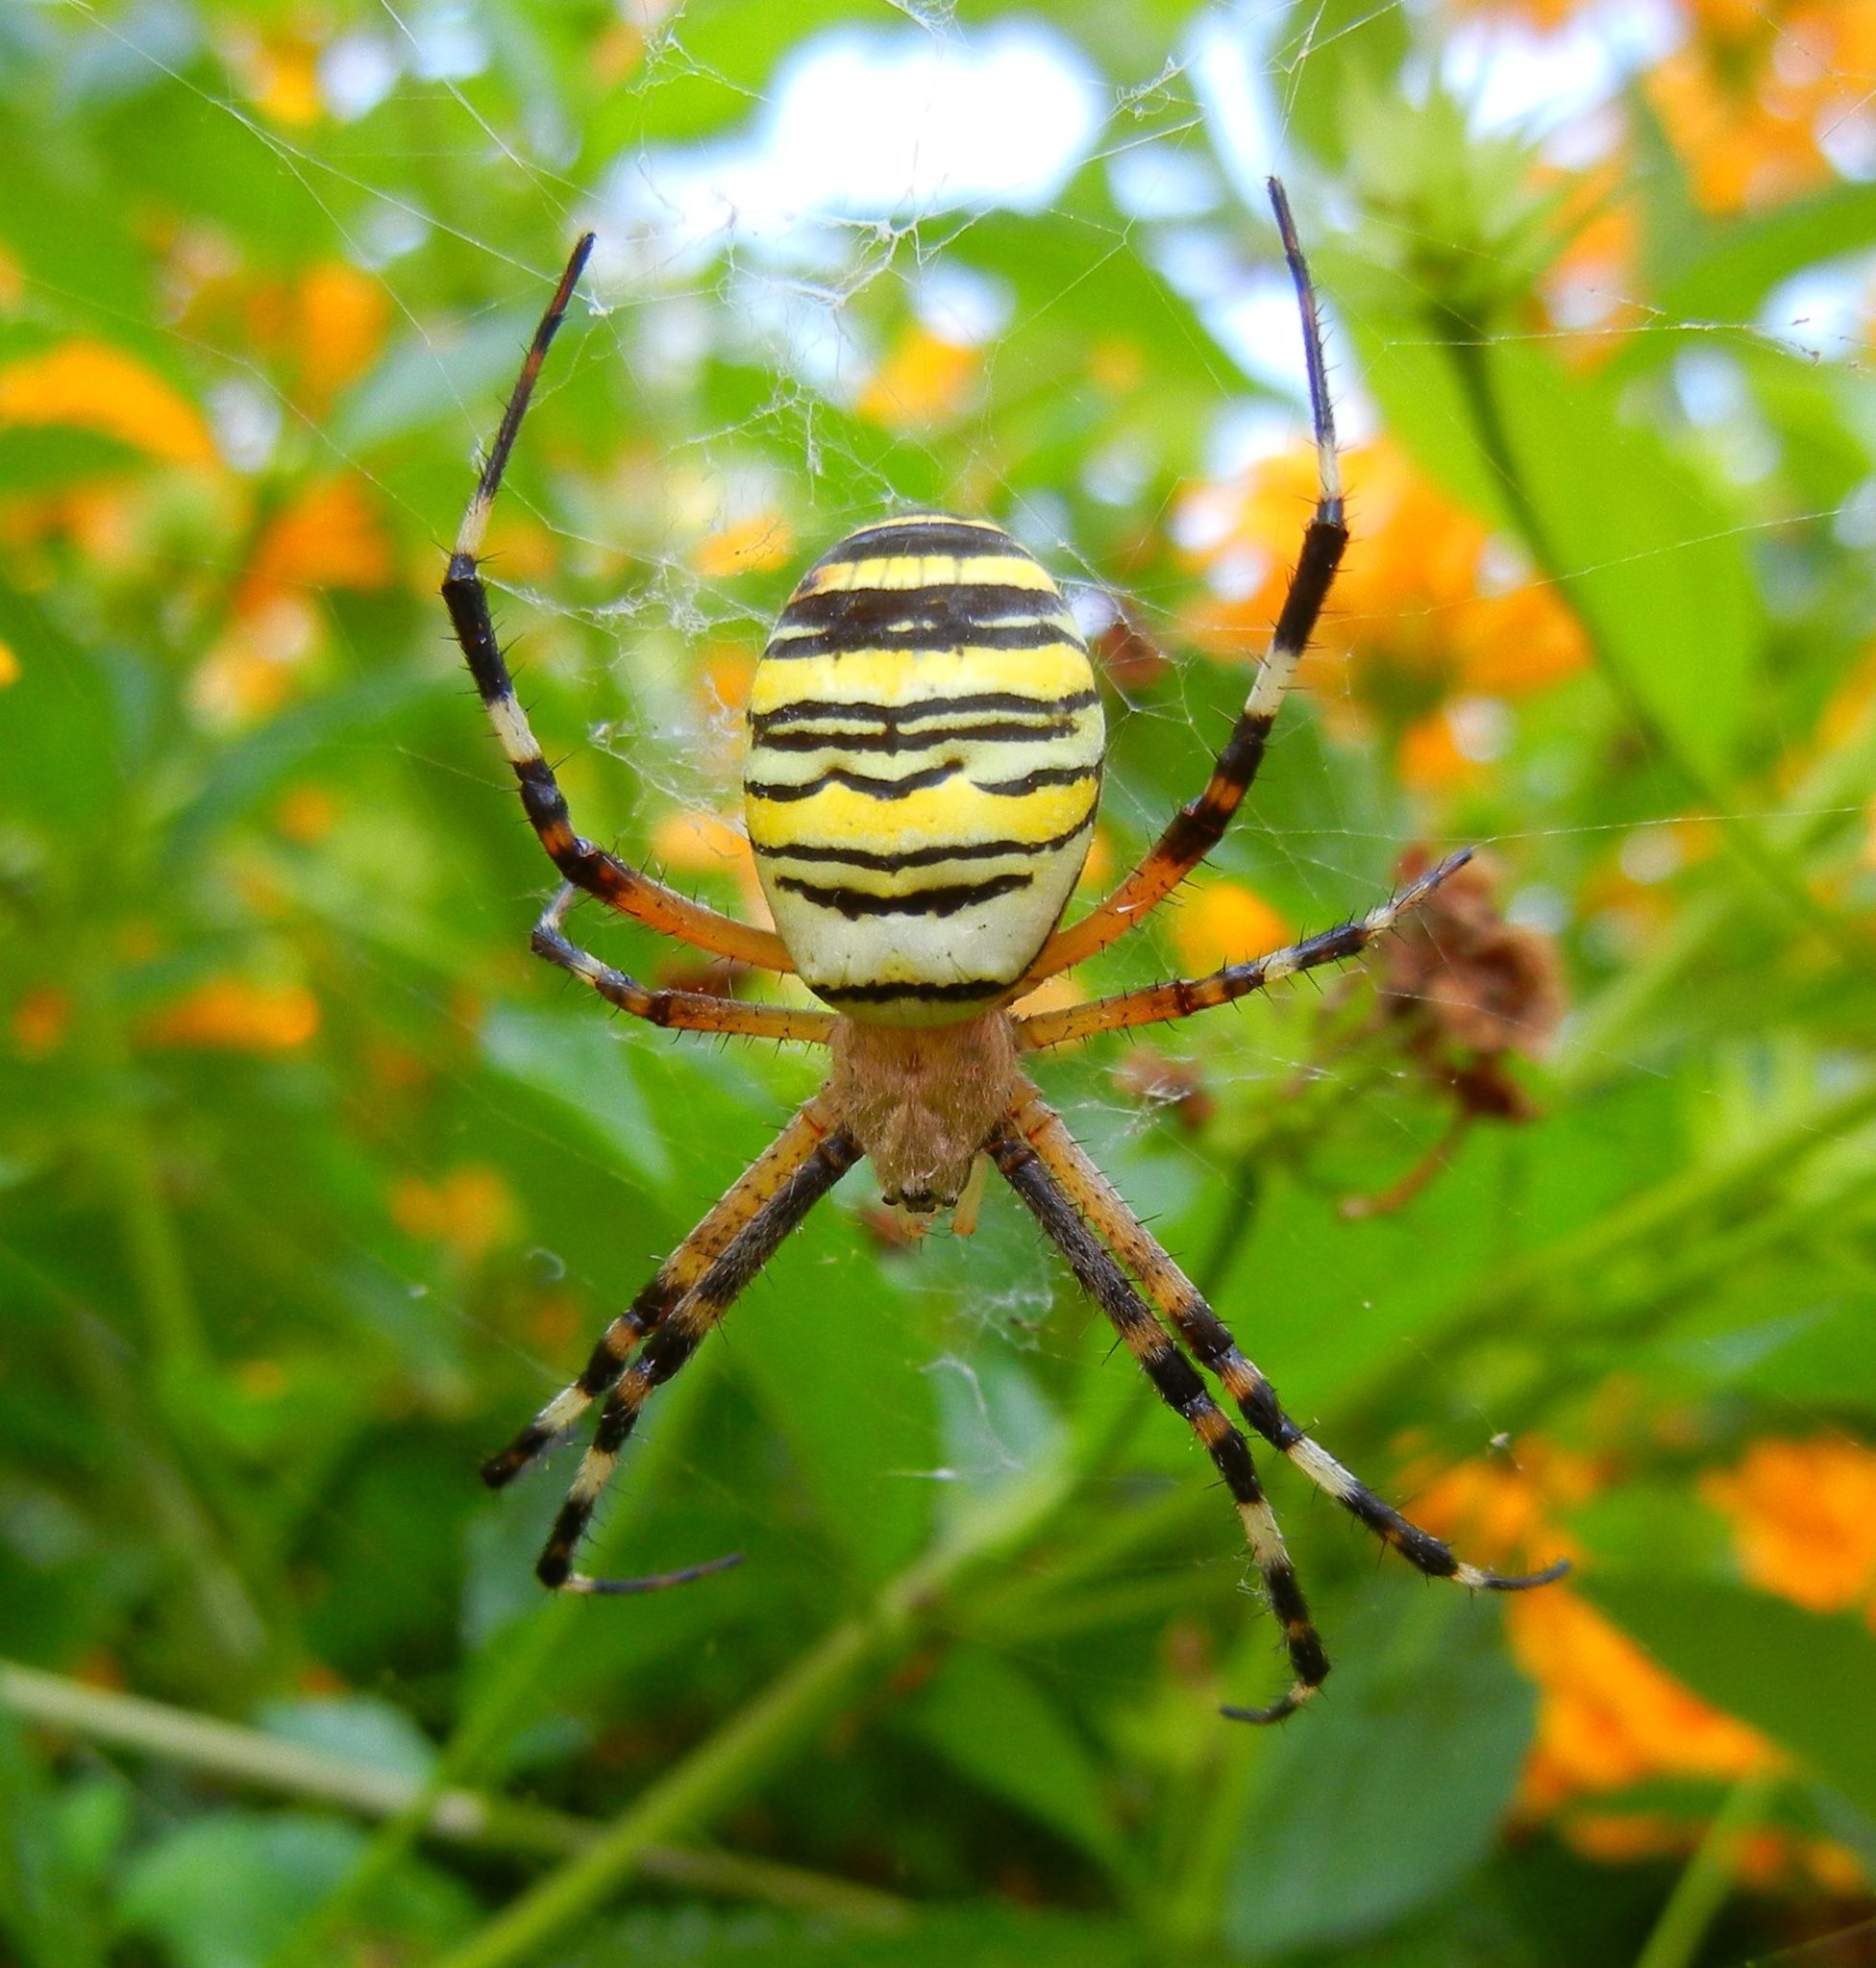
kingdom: Animalia
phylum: Arthropoda
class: Arachnida
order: Araneae
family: Araneidae
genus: Argiope
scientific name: Argiope bruennichi
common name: Wasp spider
